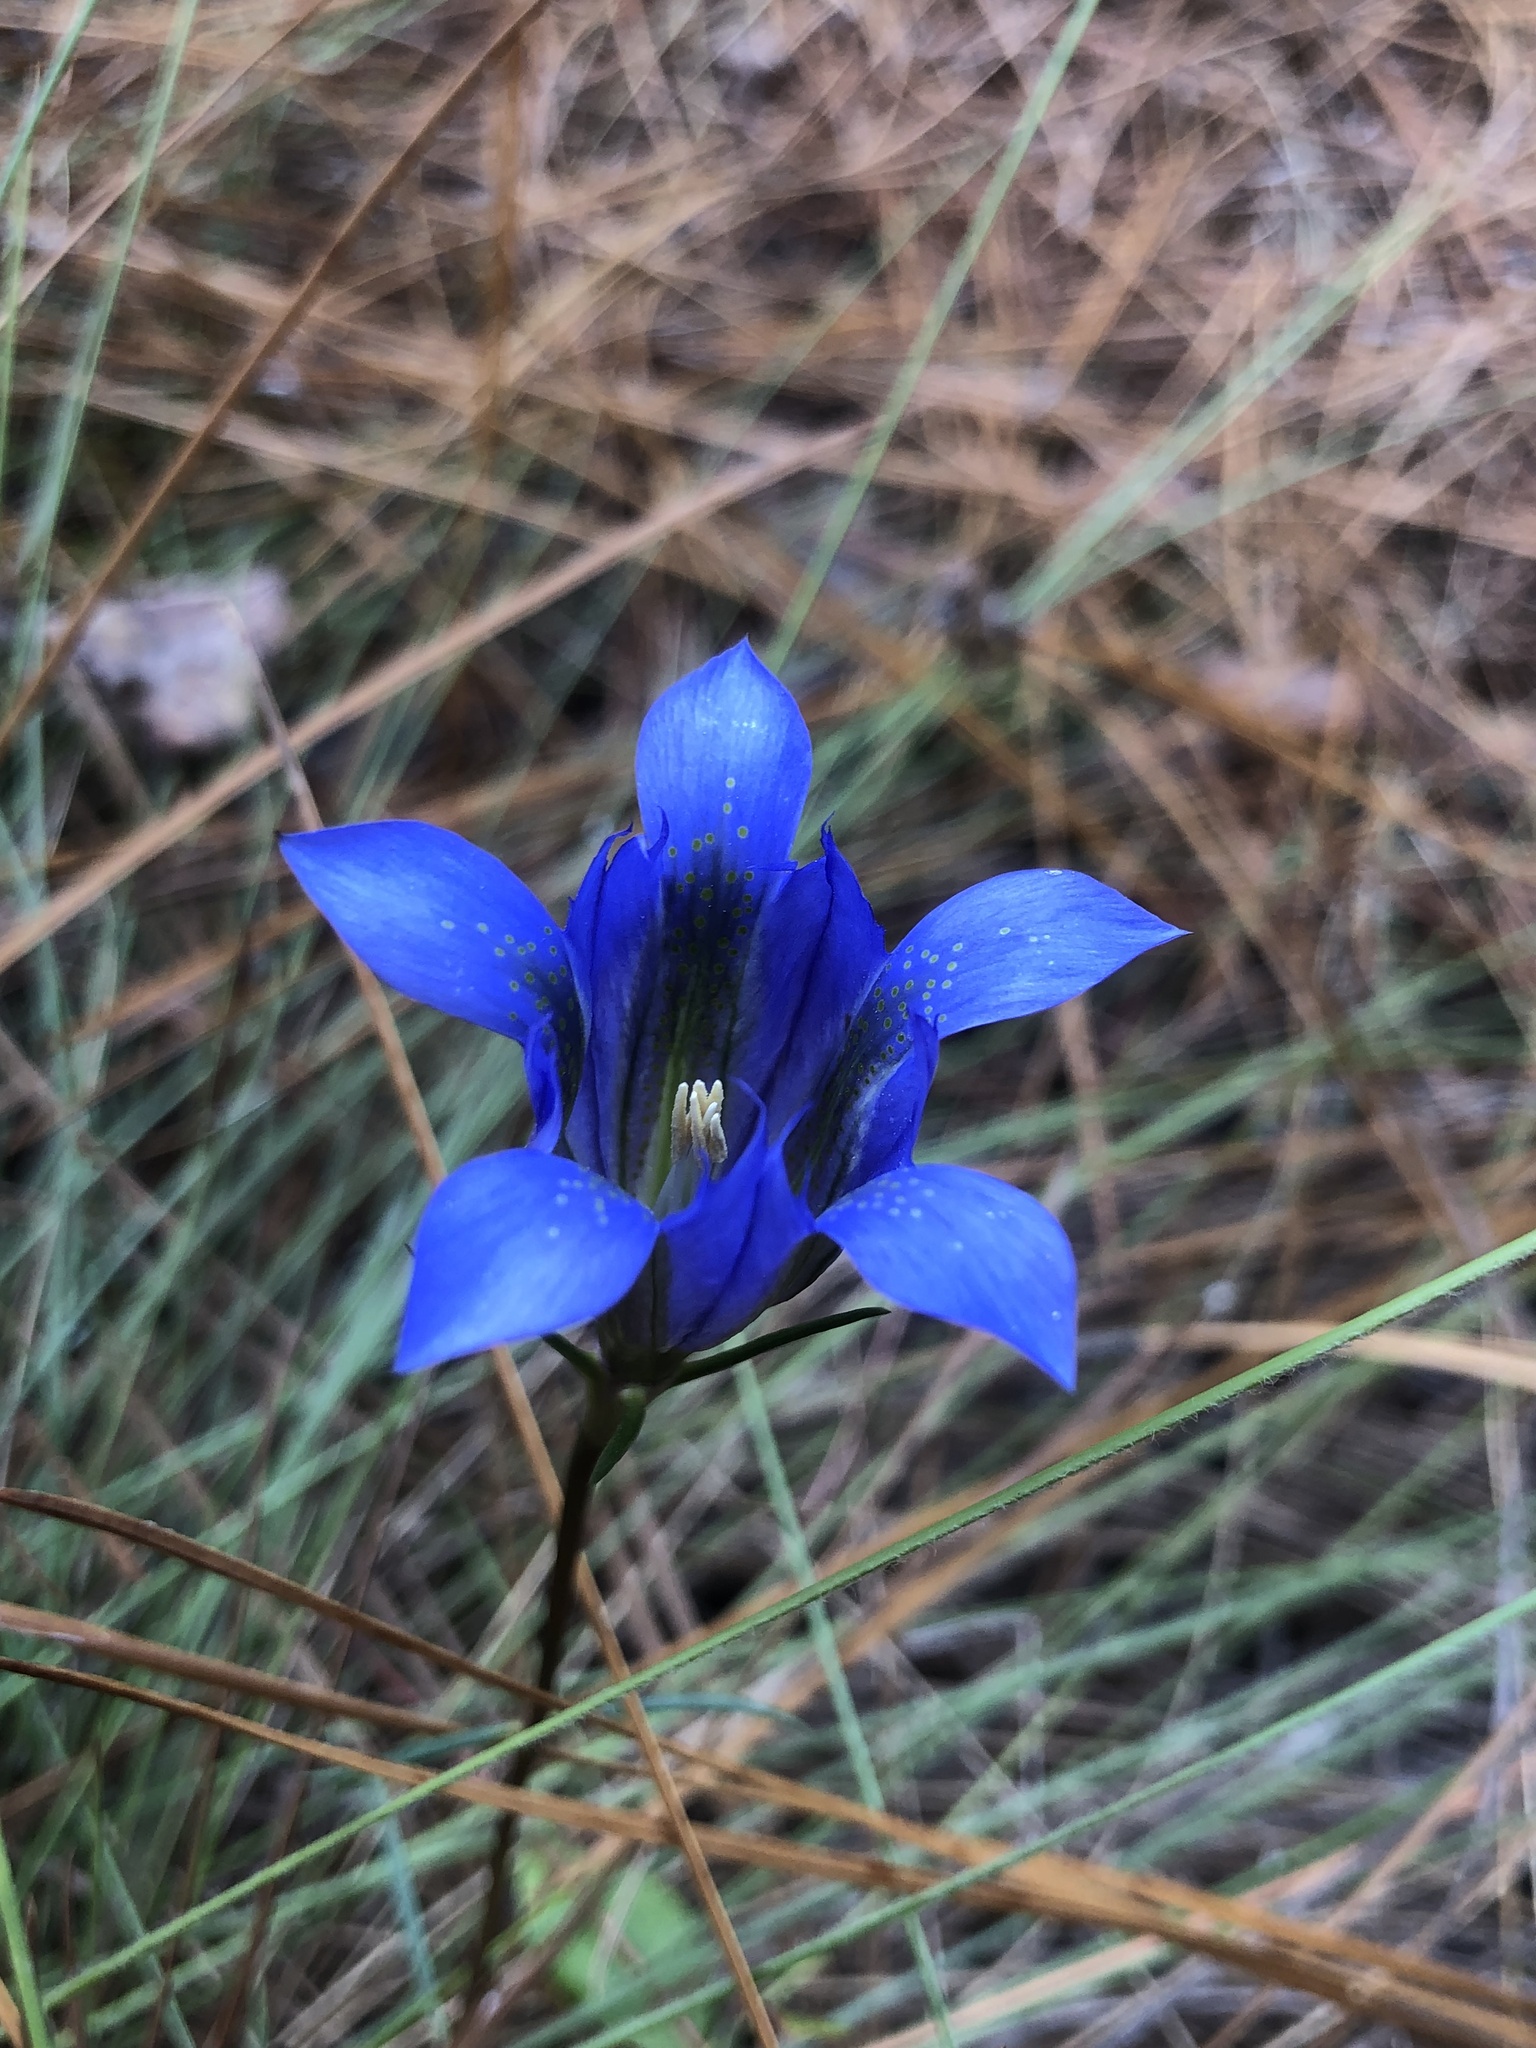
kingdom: Plantae
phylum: Tracheophyta
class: Magnoliopsida
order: Gentianales
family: Gentianaceae
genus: Gentiana
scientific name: Gentiana autumnalis
